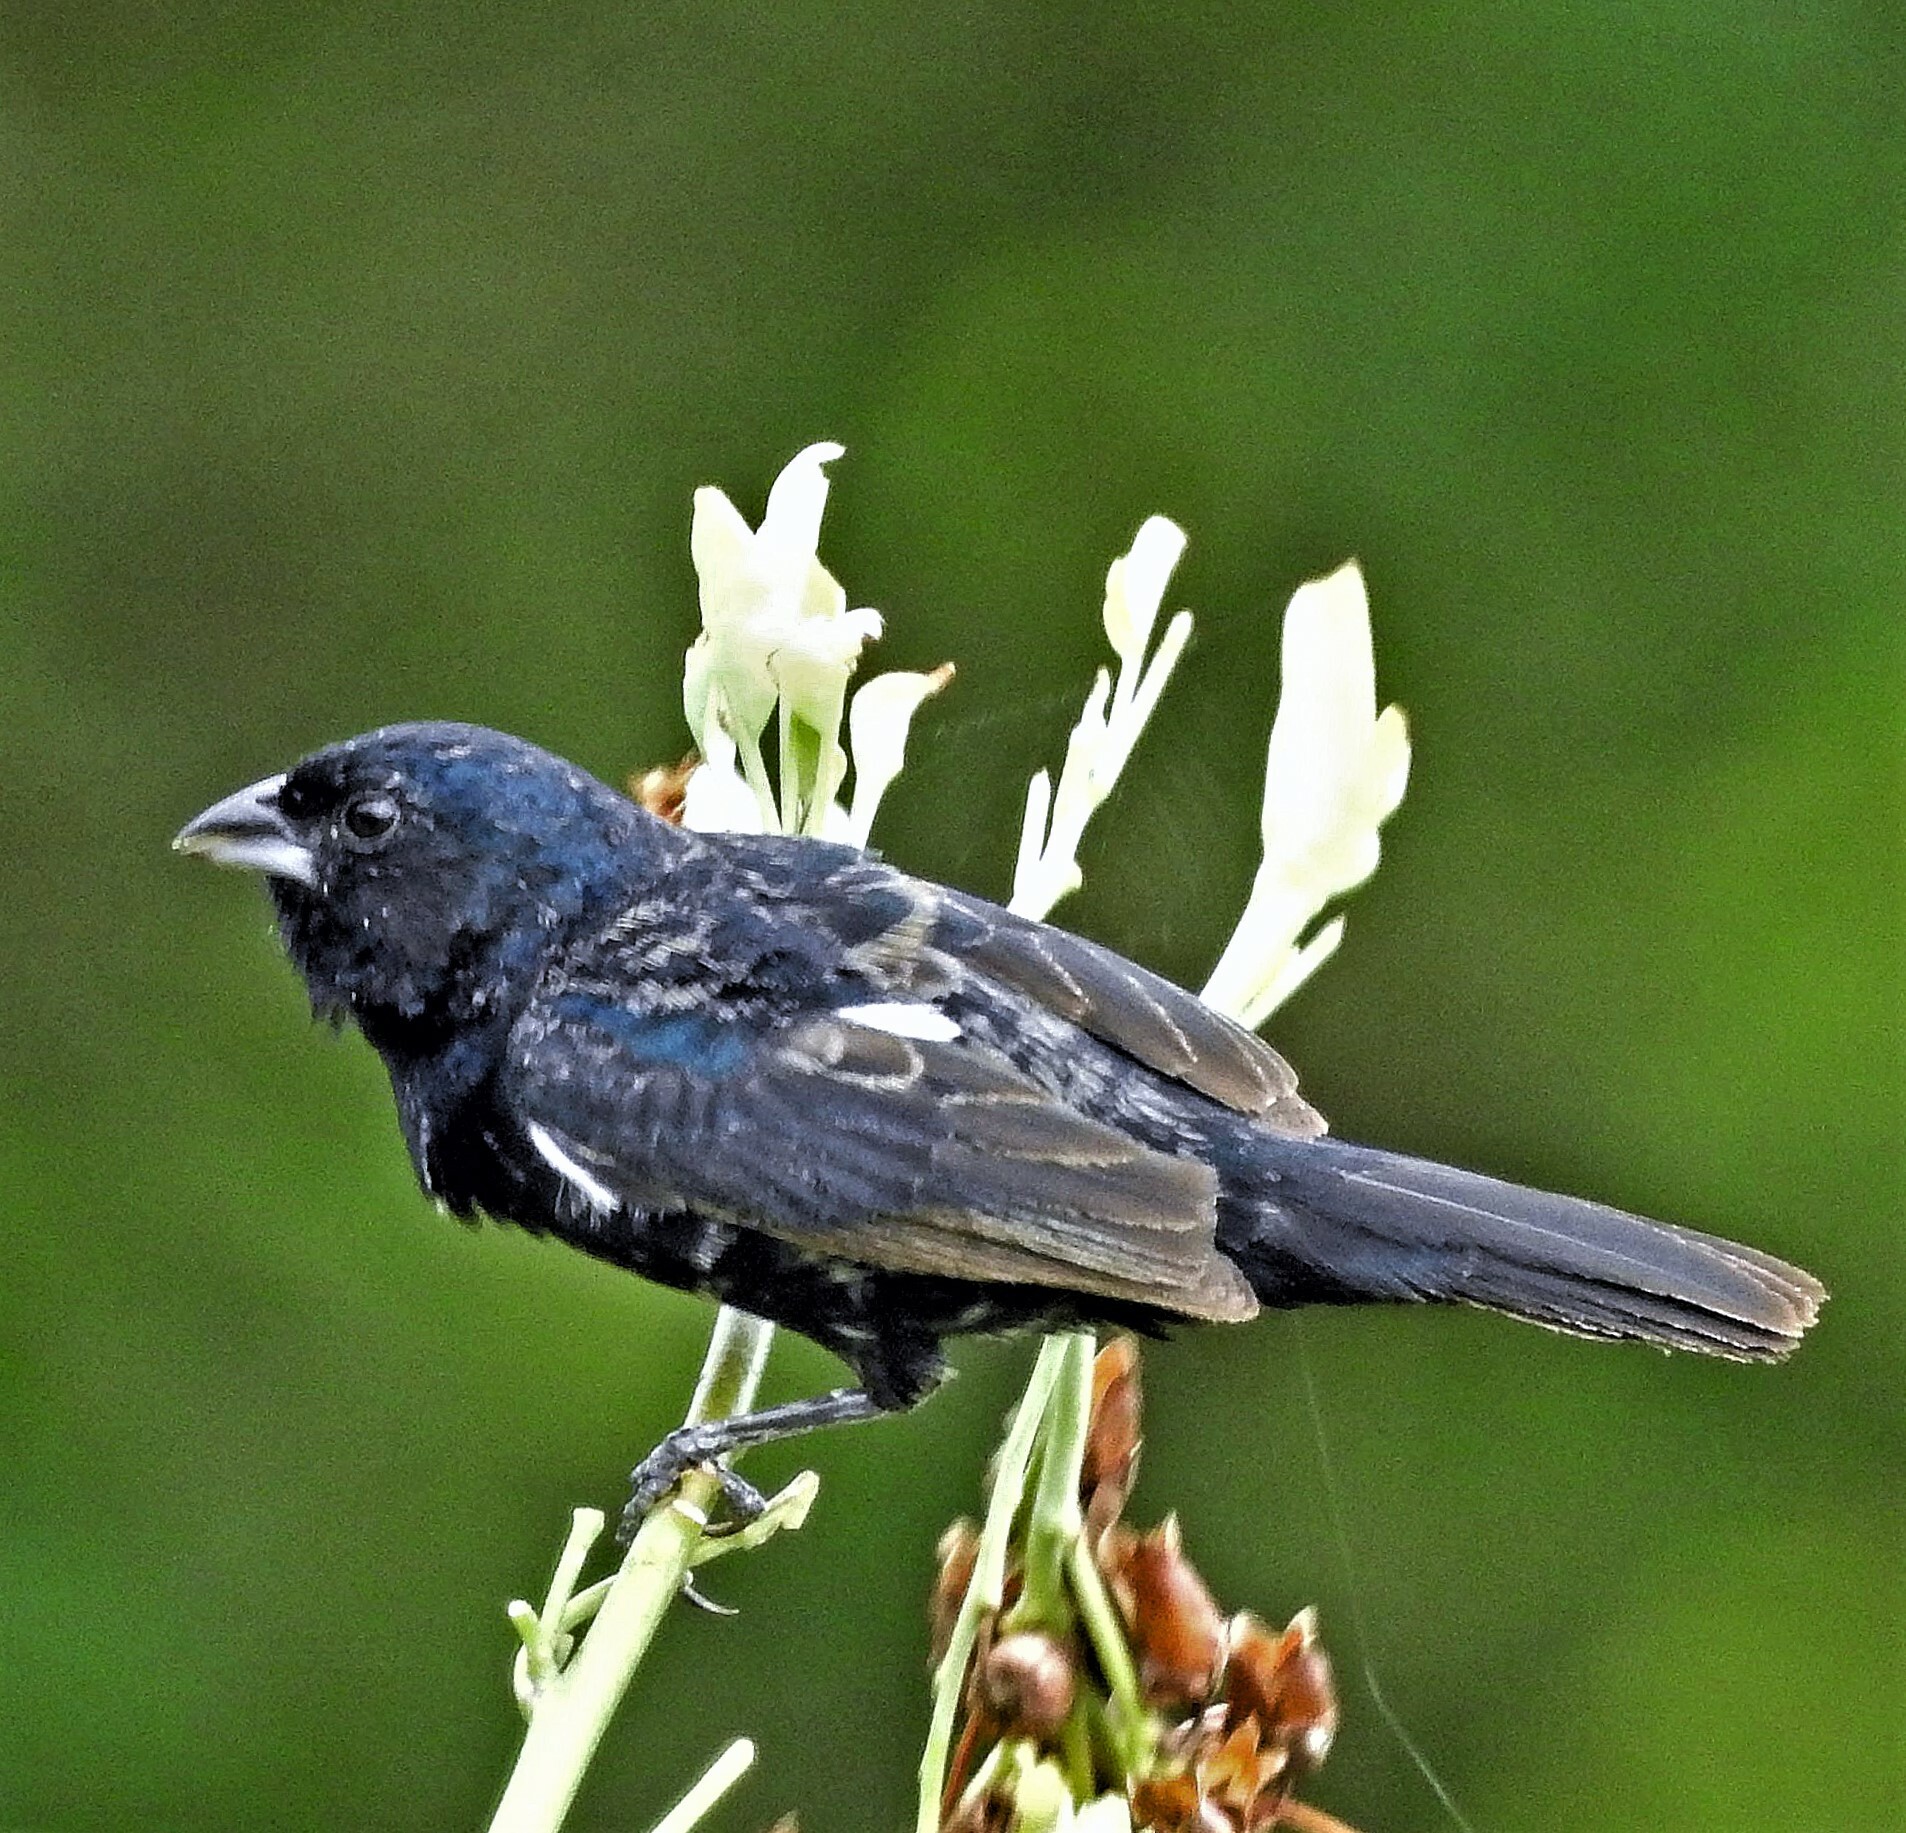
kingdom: Animalia
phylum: Chordata
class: Aves
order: Passeriformes
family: Thraupidae
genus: Volatinia
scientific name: Volatinia jacarina
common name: Blue-black grassquit
